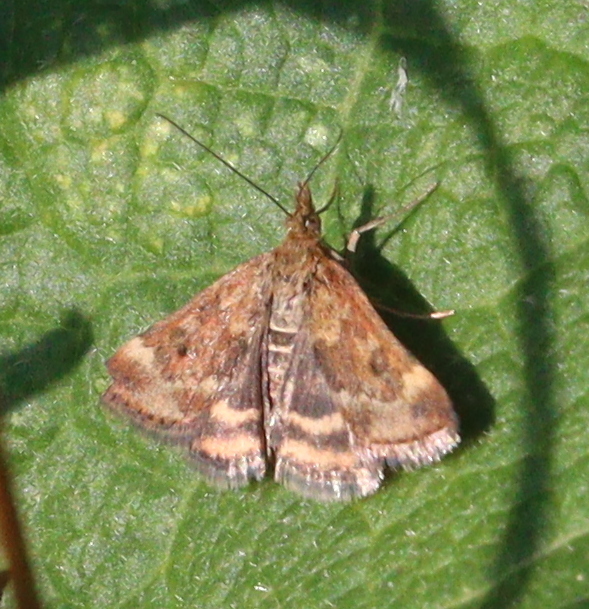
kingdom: Animalia
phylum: Arthropoda
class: Insecta
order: Lepidoptera
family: Crambidae
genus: Pyrausta
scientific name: Pyrausta despicata
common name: Straw-barred pearl
